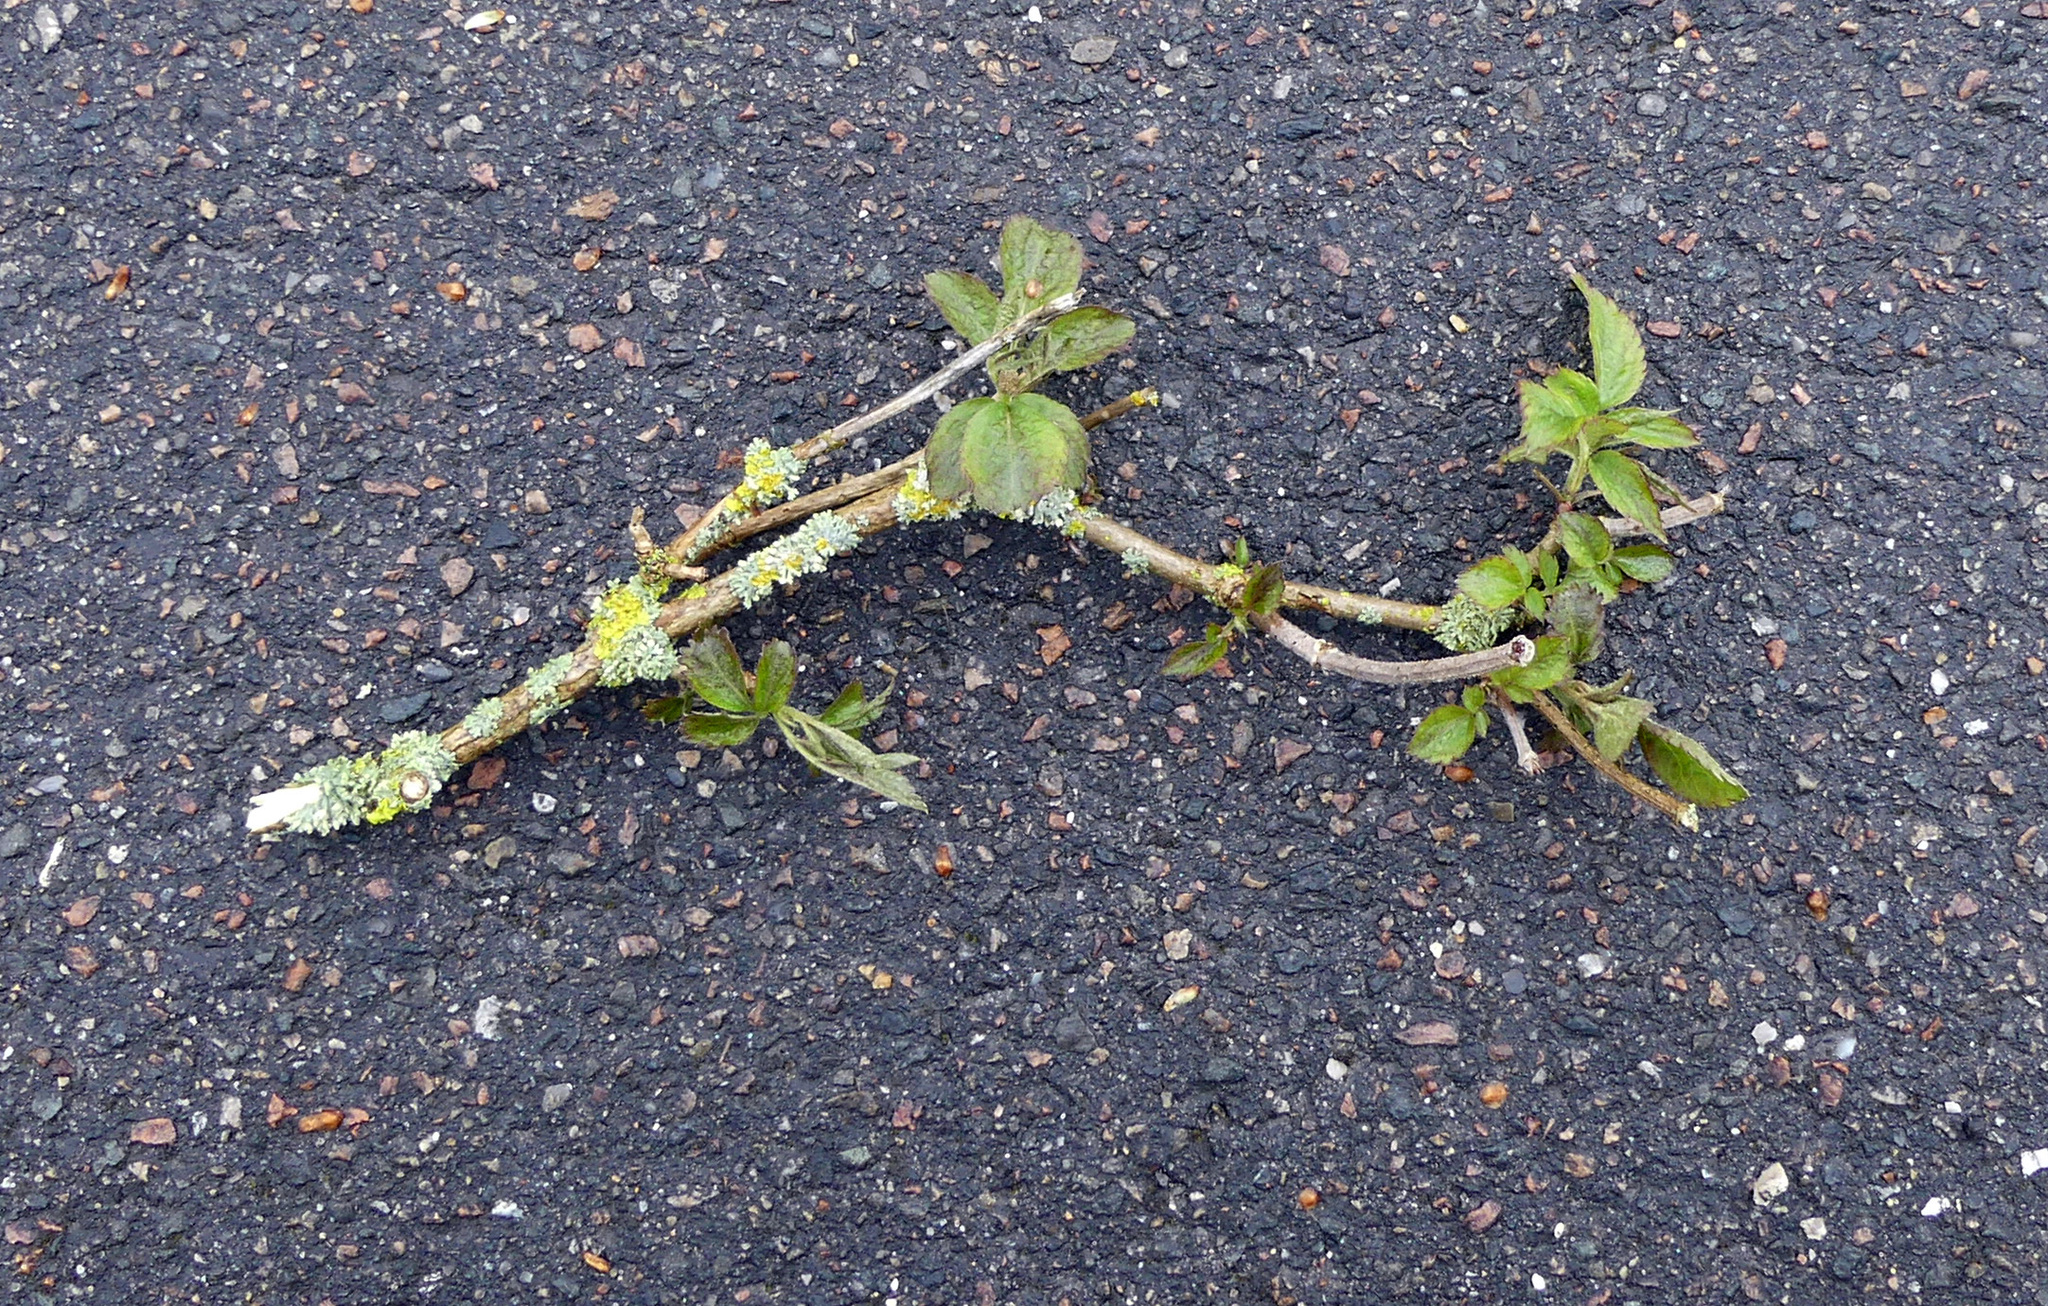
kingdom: Plantae
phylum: Tracheophyta
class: Magnoliopsida
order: Dipsacales
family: Viburnaceae
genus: Sambucus
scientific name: Sambucus nigra
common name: Elder
